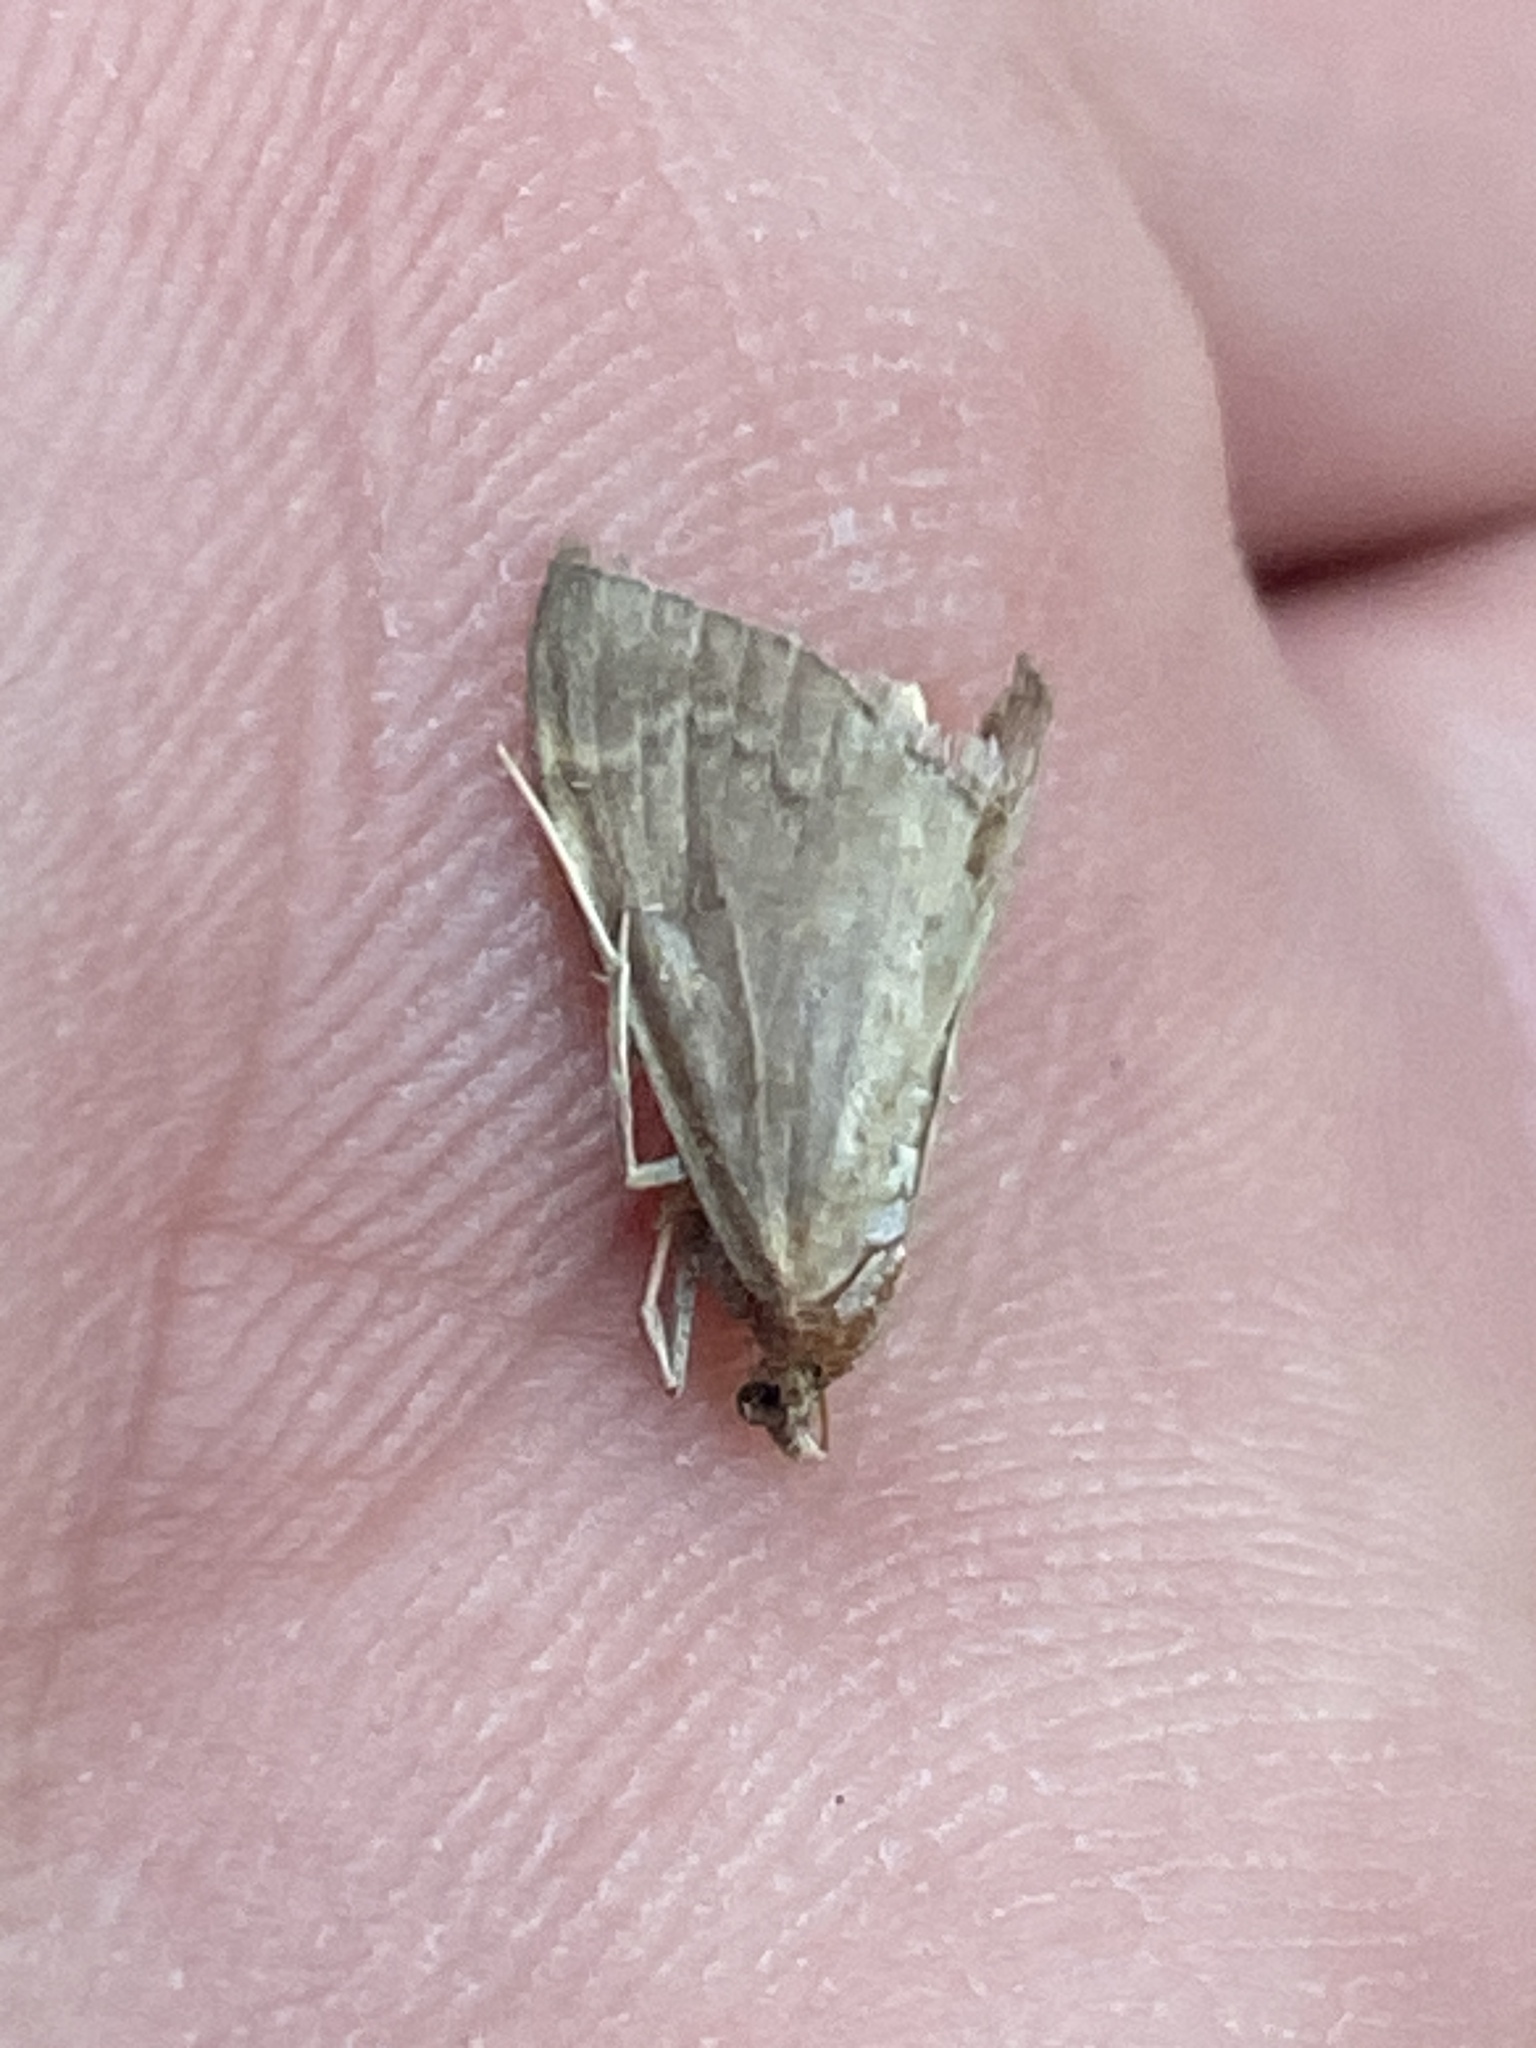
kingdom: Animalia
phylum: Arthropoda
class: Insecta
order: Lepidoptera
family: Crambidae
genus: Anania
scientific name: Anania fuscalis
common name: Cinerous pearl
